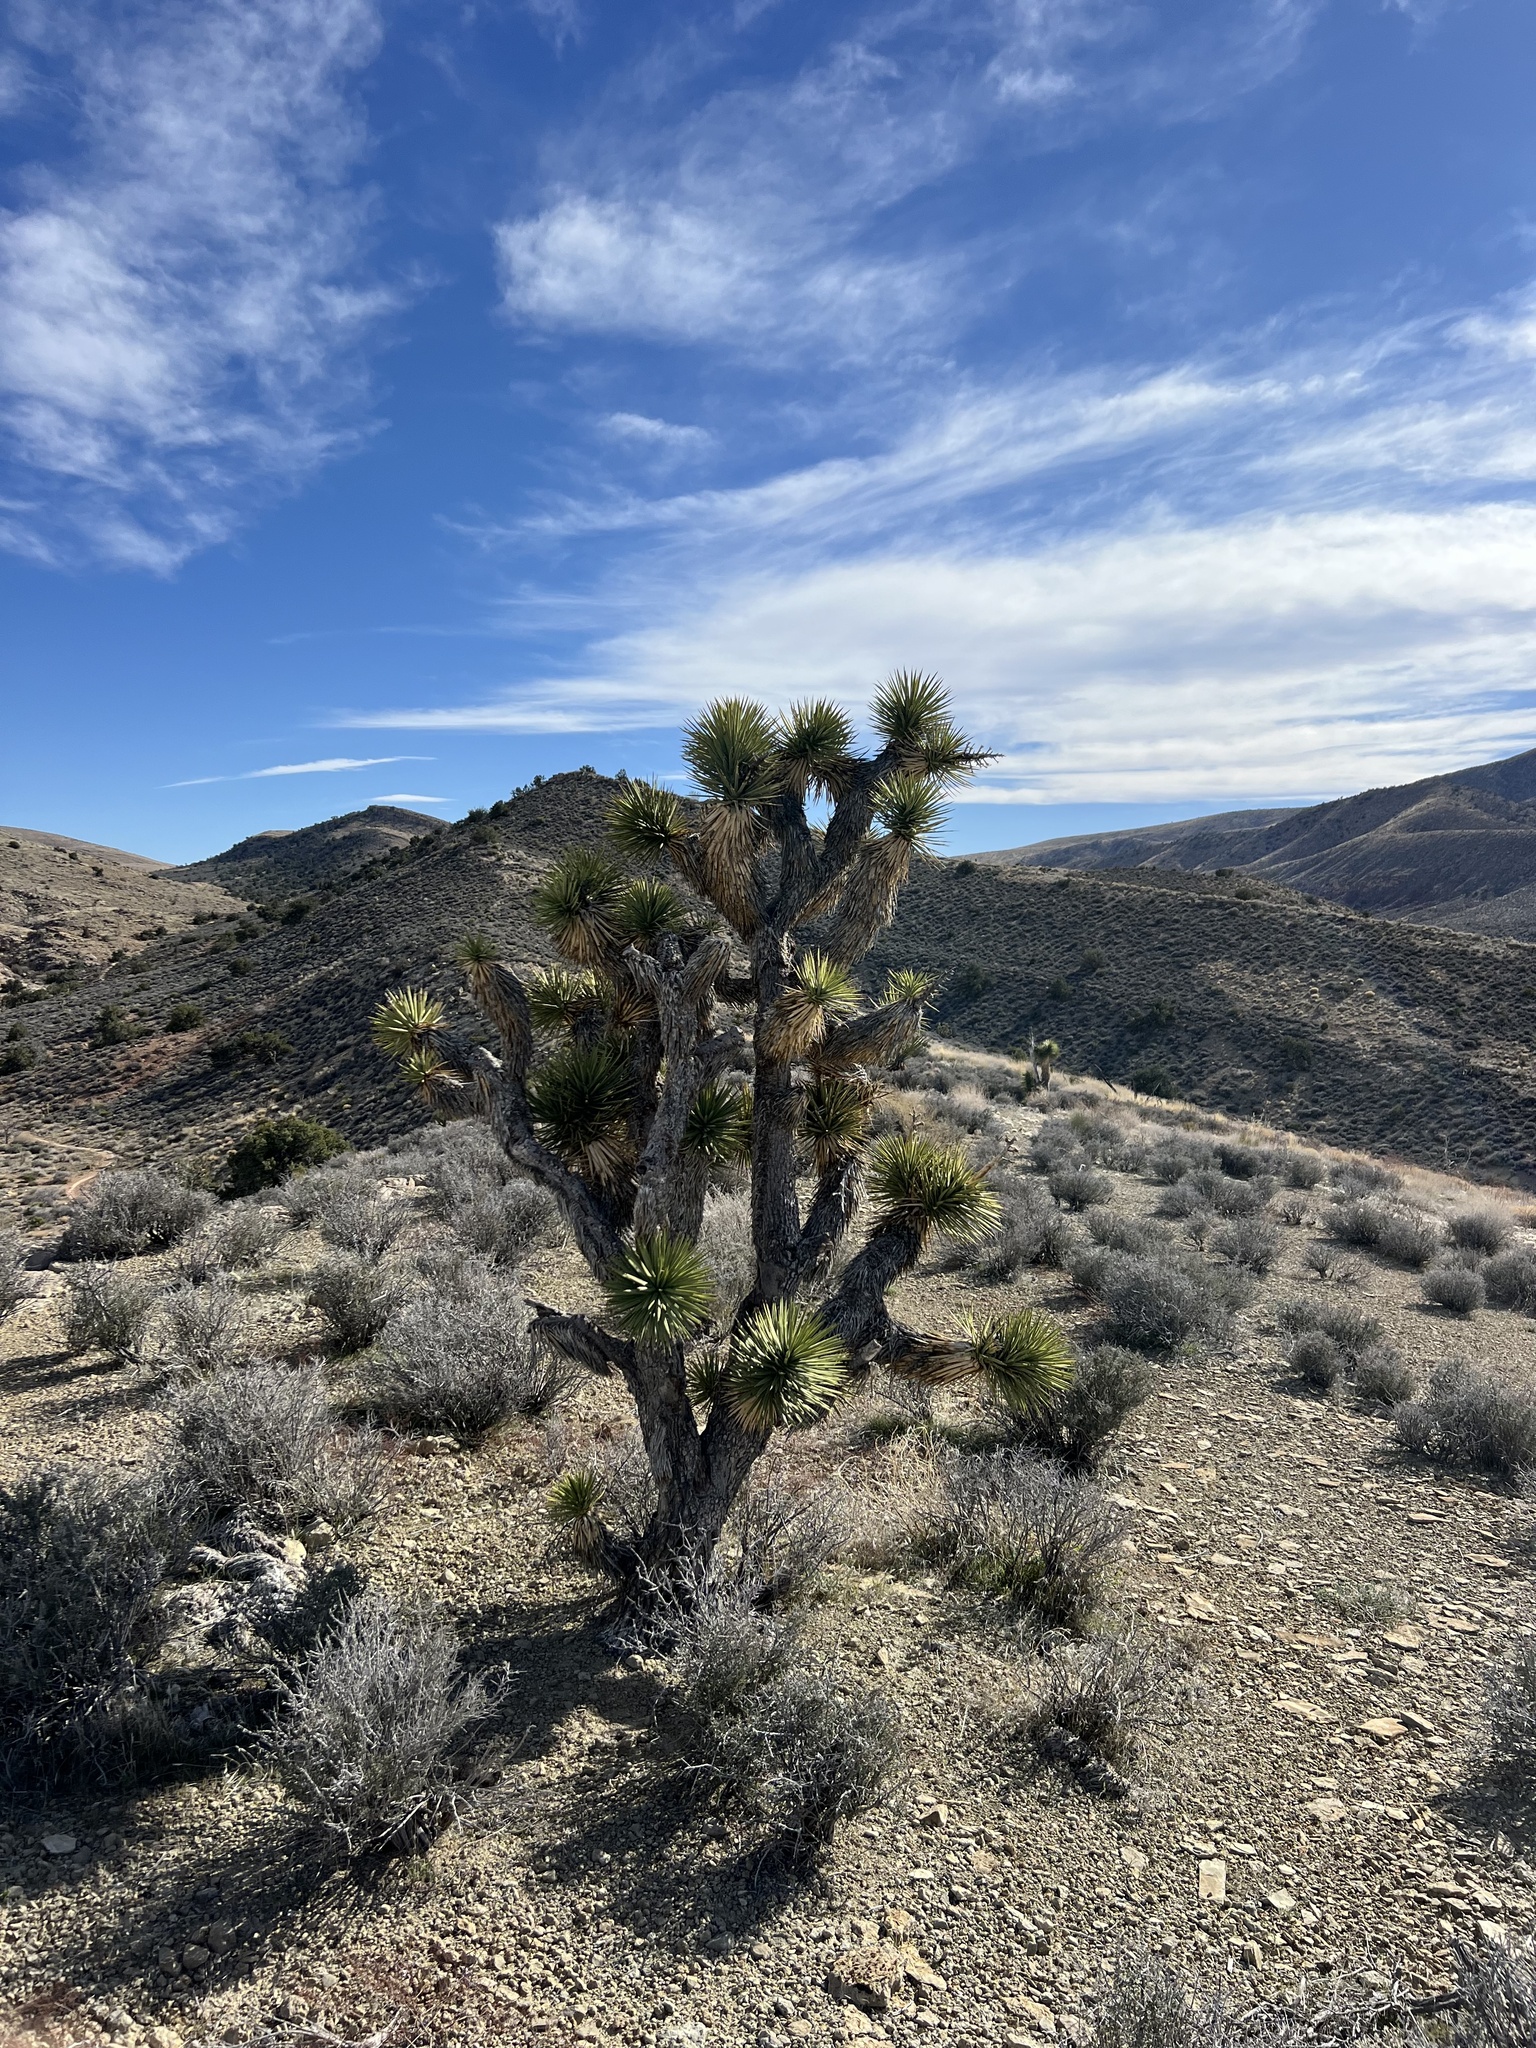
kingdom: Plantae
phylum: Tracheophyta
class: Liliopsida
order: Asparagales
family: Asparagaceae
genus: Yucca
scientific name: Yucca brevifolia
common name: Joshua tree
